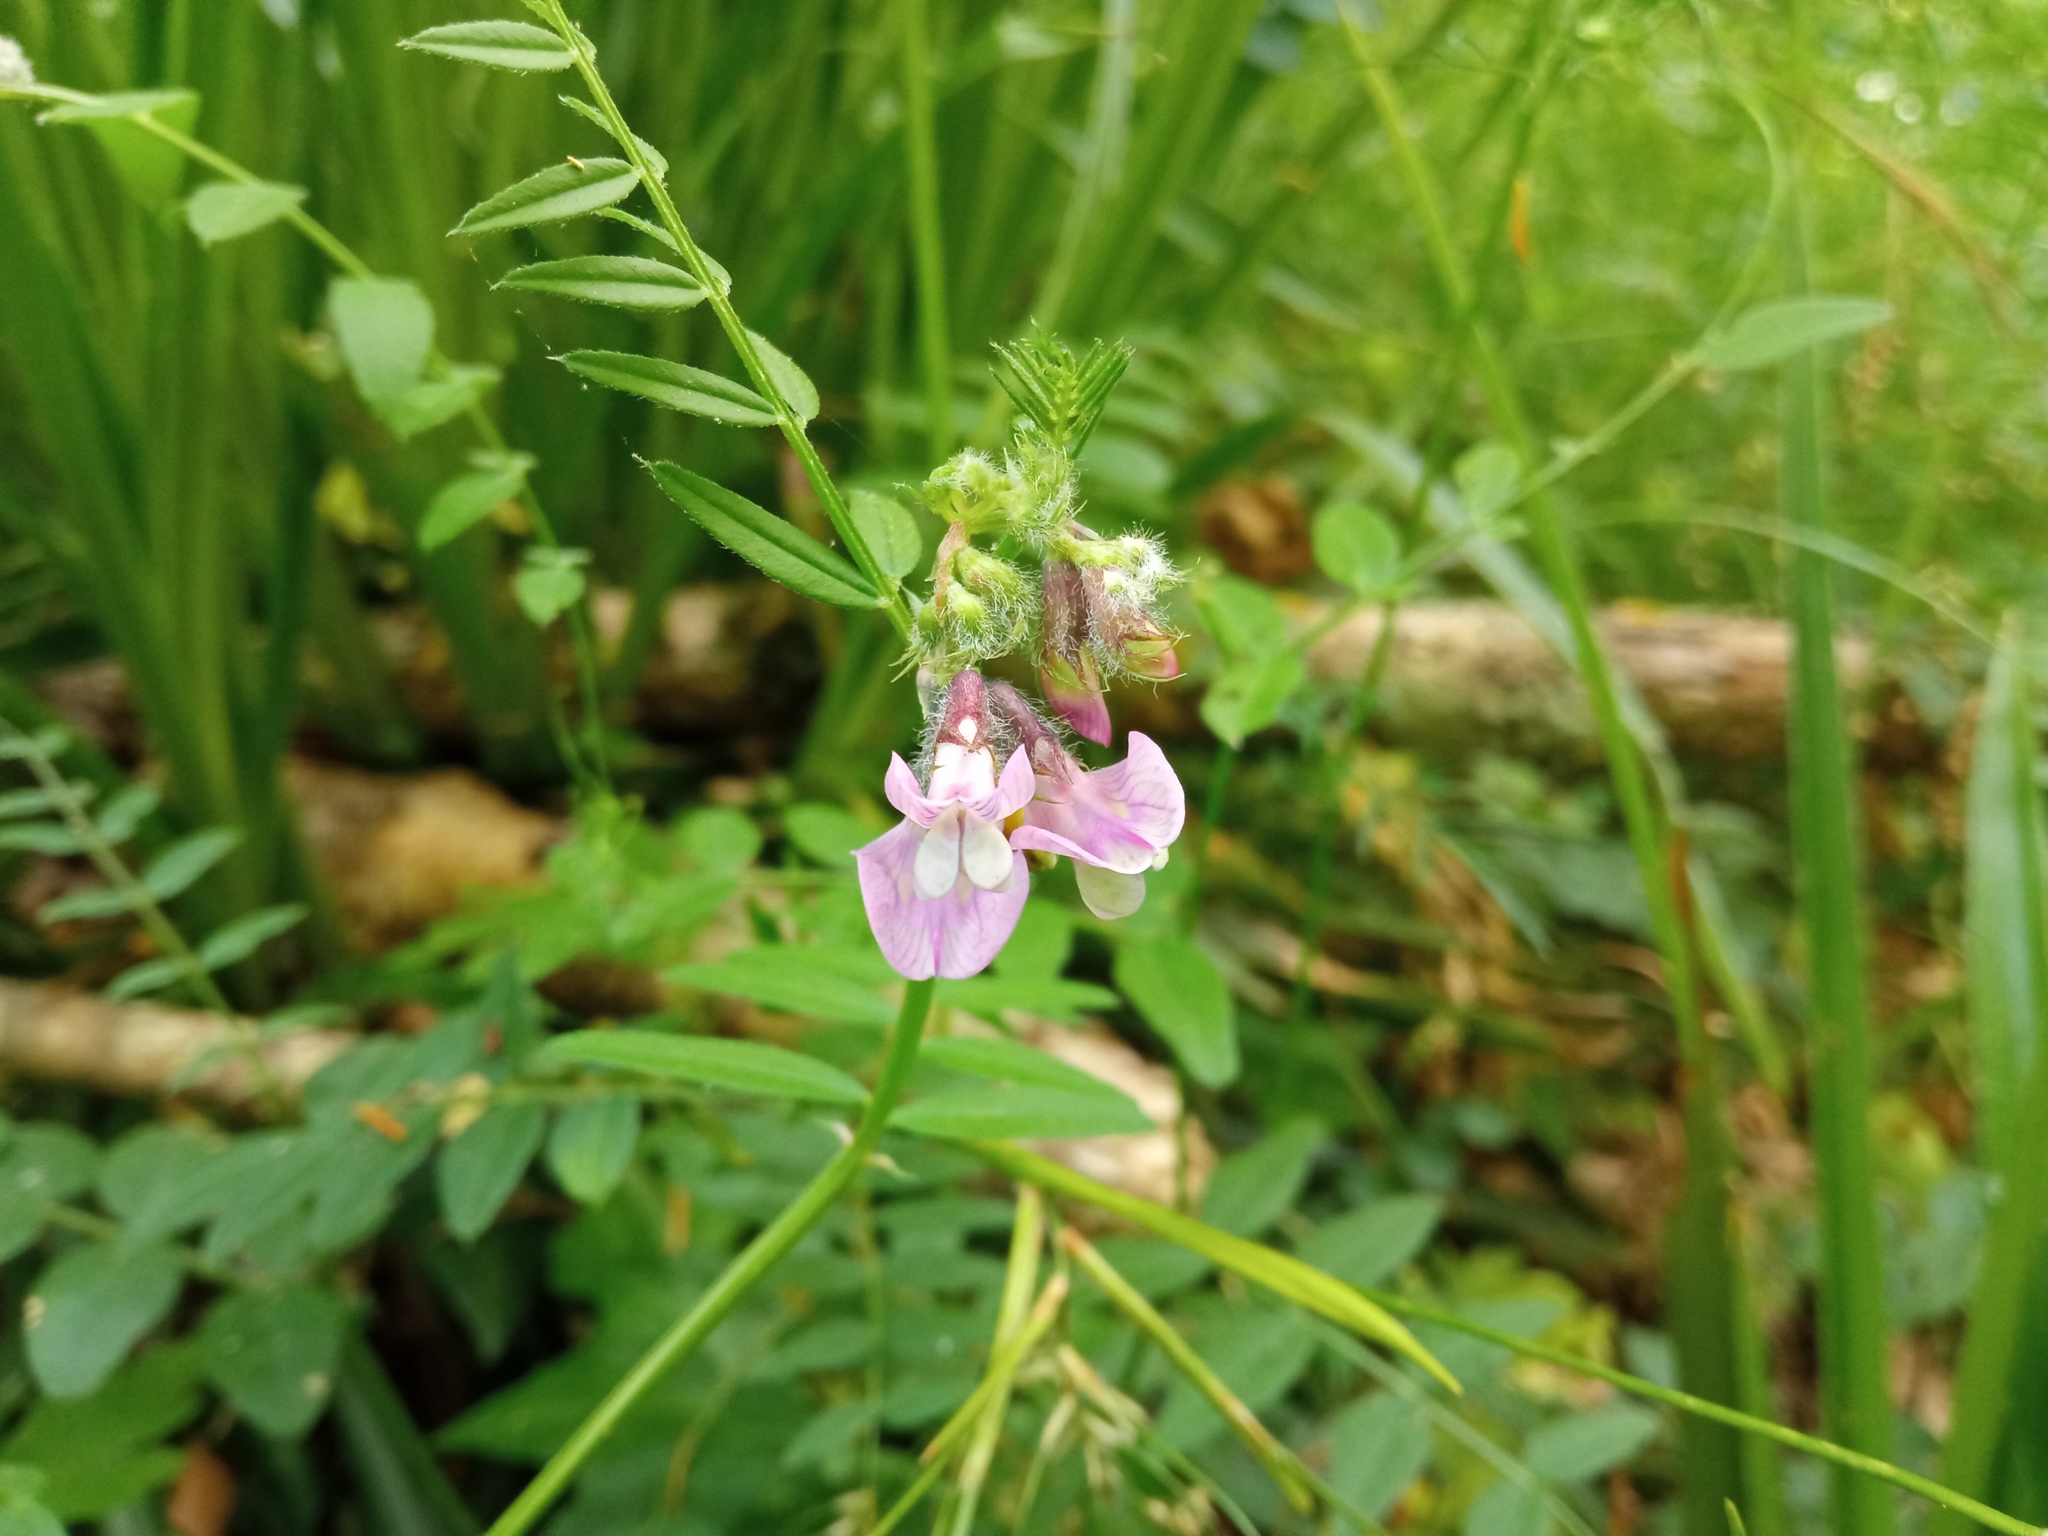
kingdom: Plantae
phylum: Tracheophyta
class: Magnoliopsida
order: Fabales
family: Fabaceae
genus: Vicia
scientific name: Vicia sepium
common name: Bush vetch
